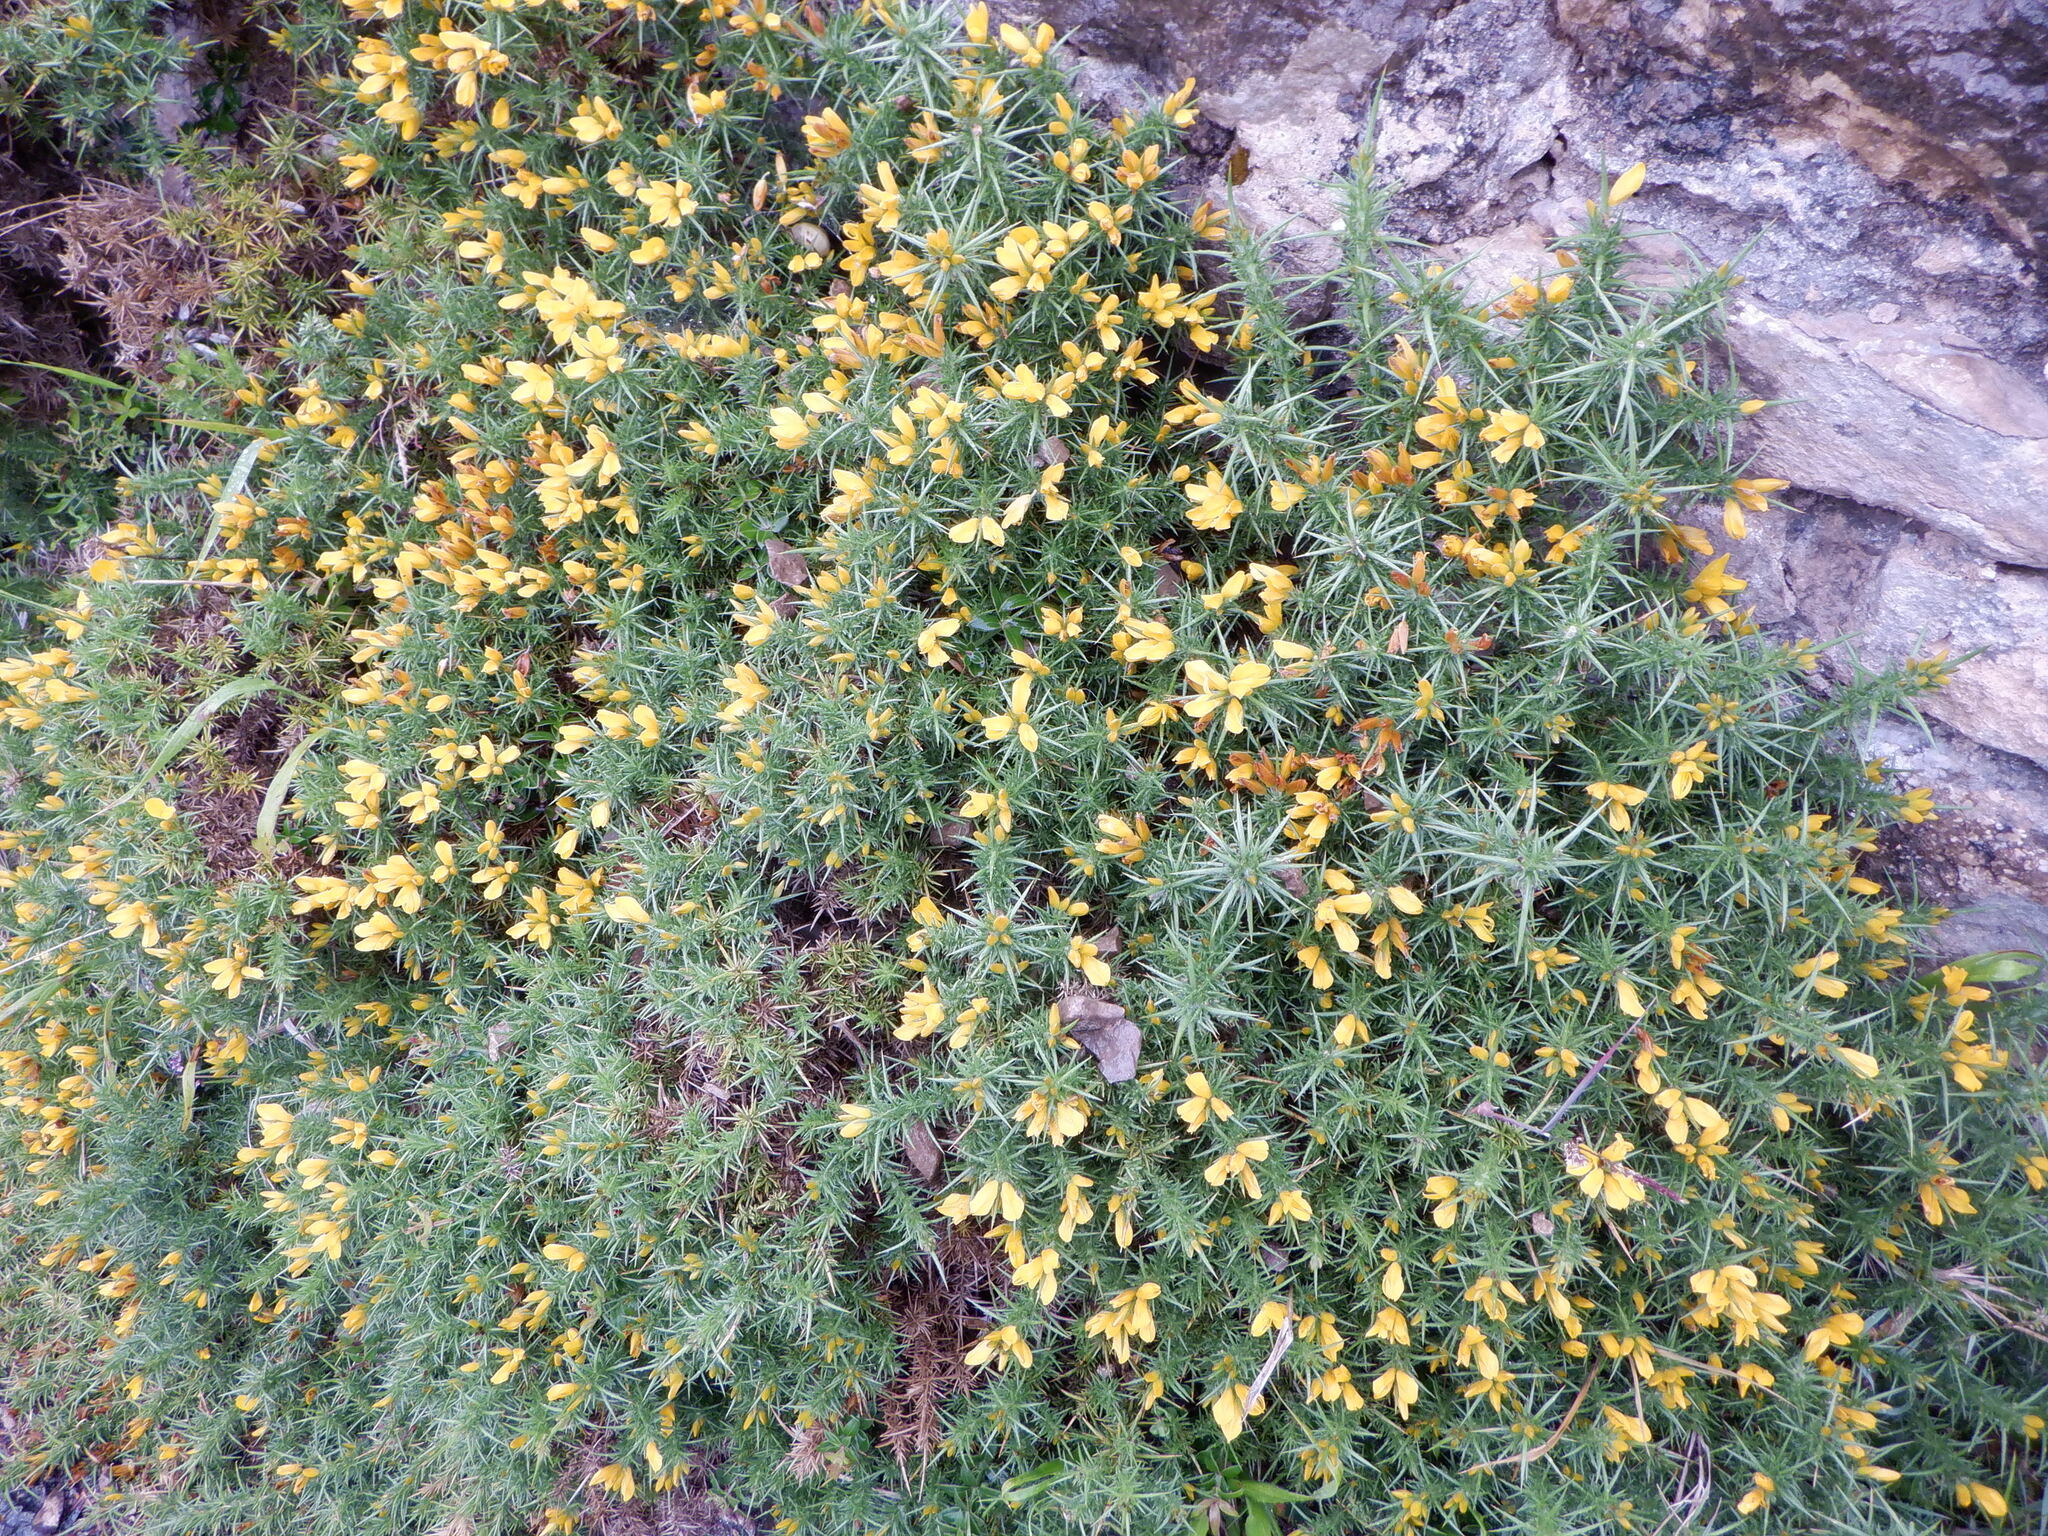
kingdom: Plantae
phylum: Tracheophyta
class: Magnoliopsida
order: Fabales
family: Fabaceae
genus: Ulex
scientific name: Ulex europaeus
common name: Common gorse
